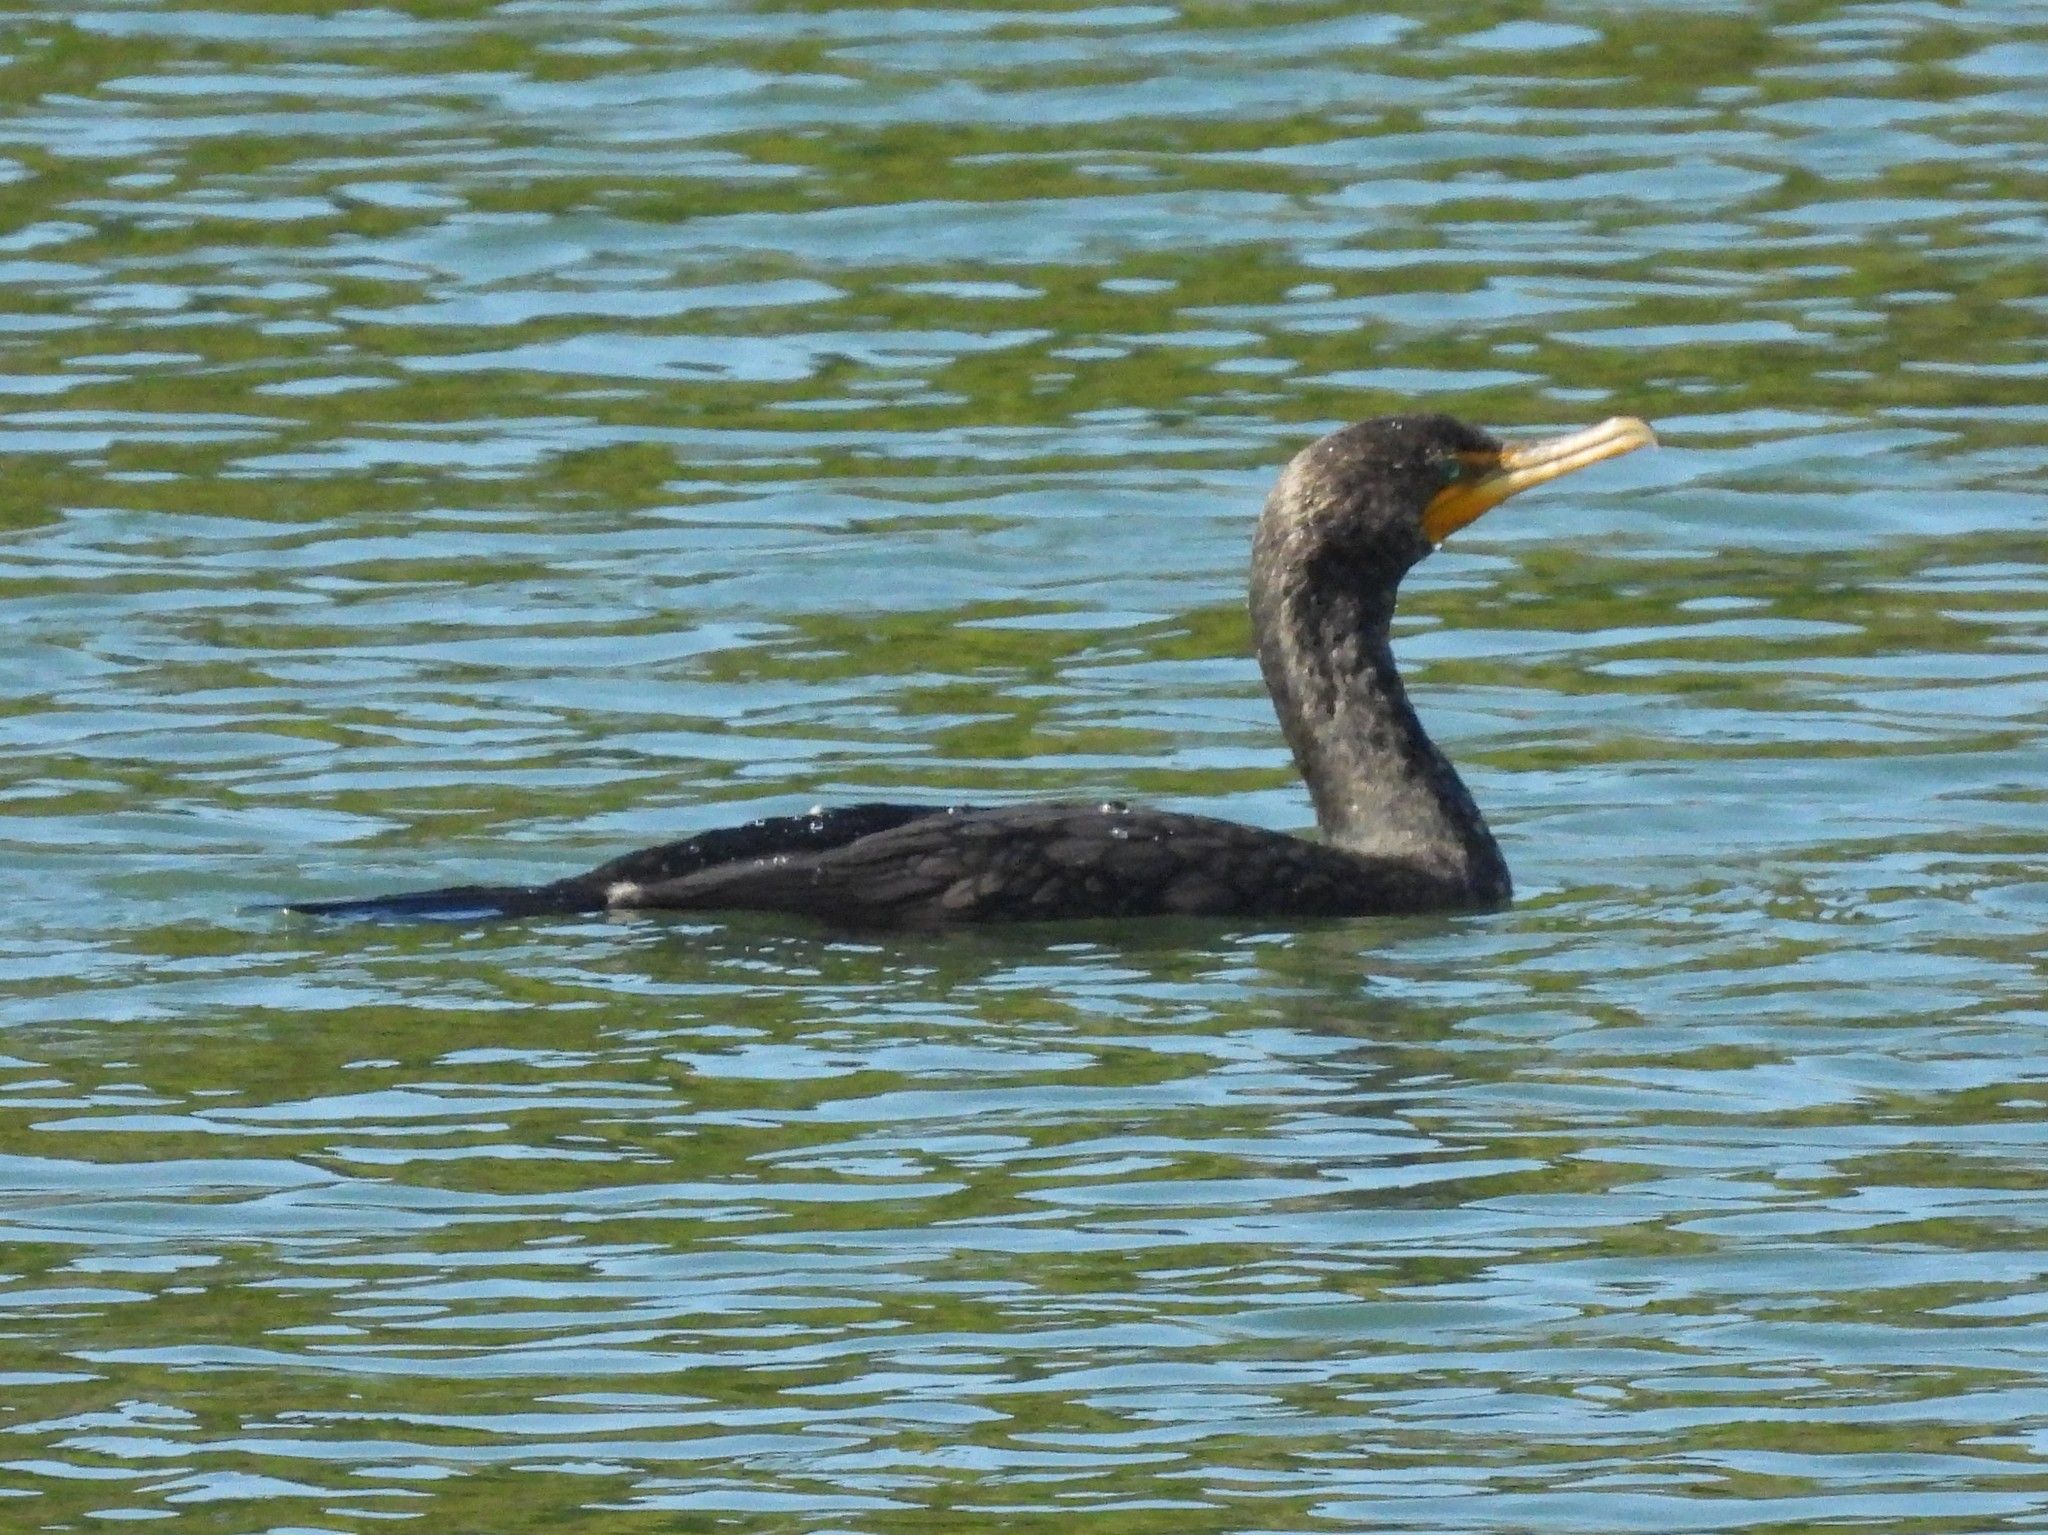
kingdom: Animalia
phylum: Chordata
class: Aves
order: Suliformes
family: Phalacrocoracidae
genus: Phalacrocorax
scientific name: Phalacrocorax auritus
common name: Double-crested cormorant
